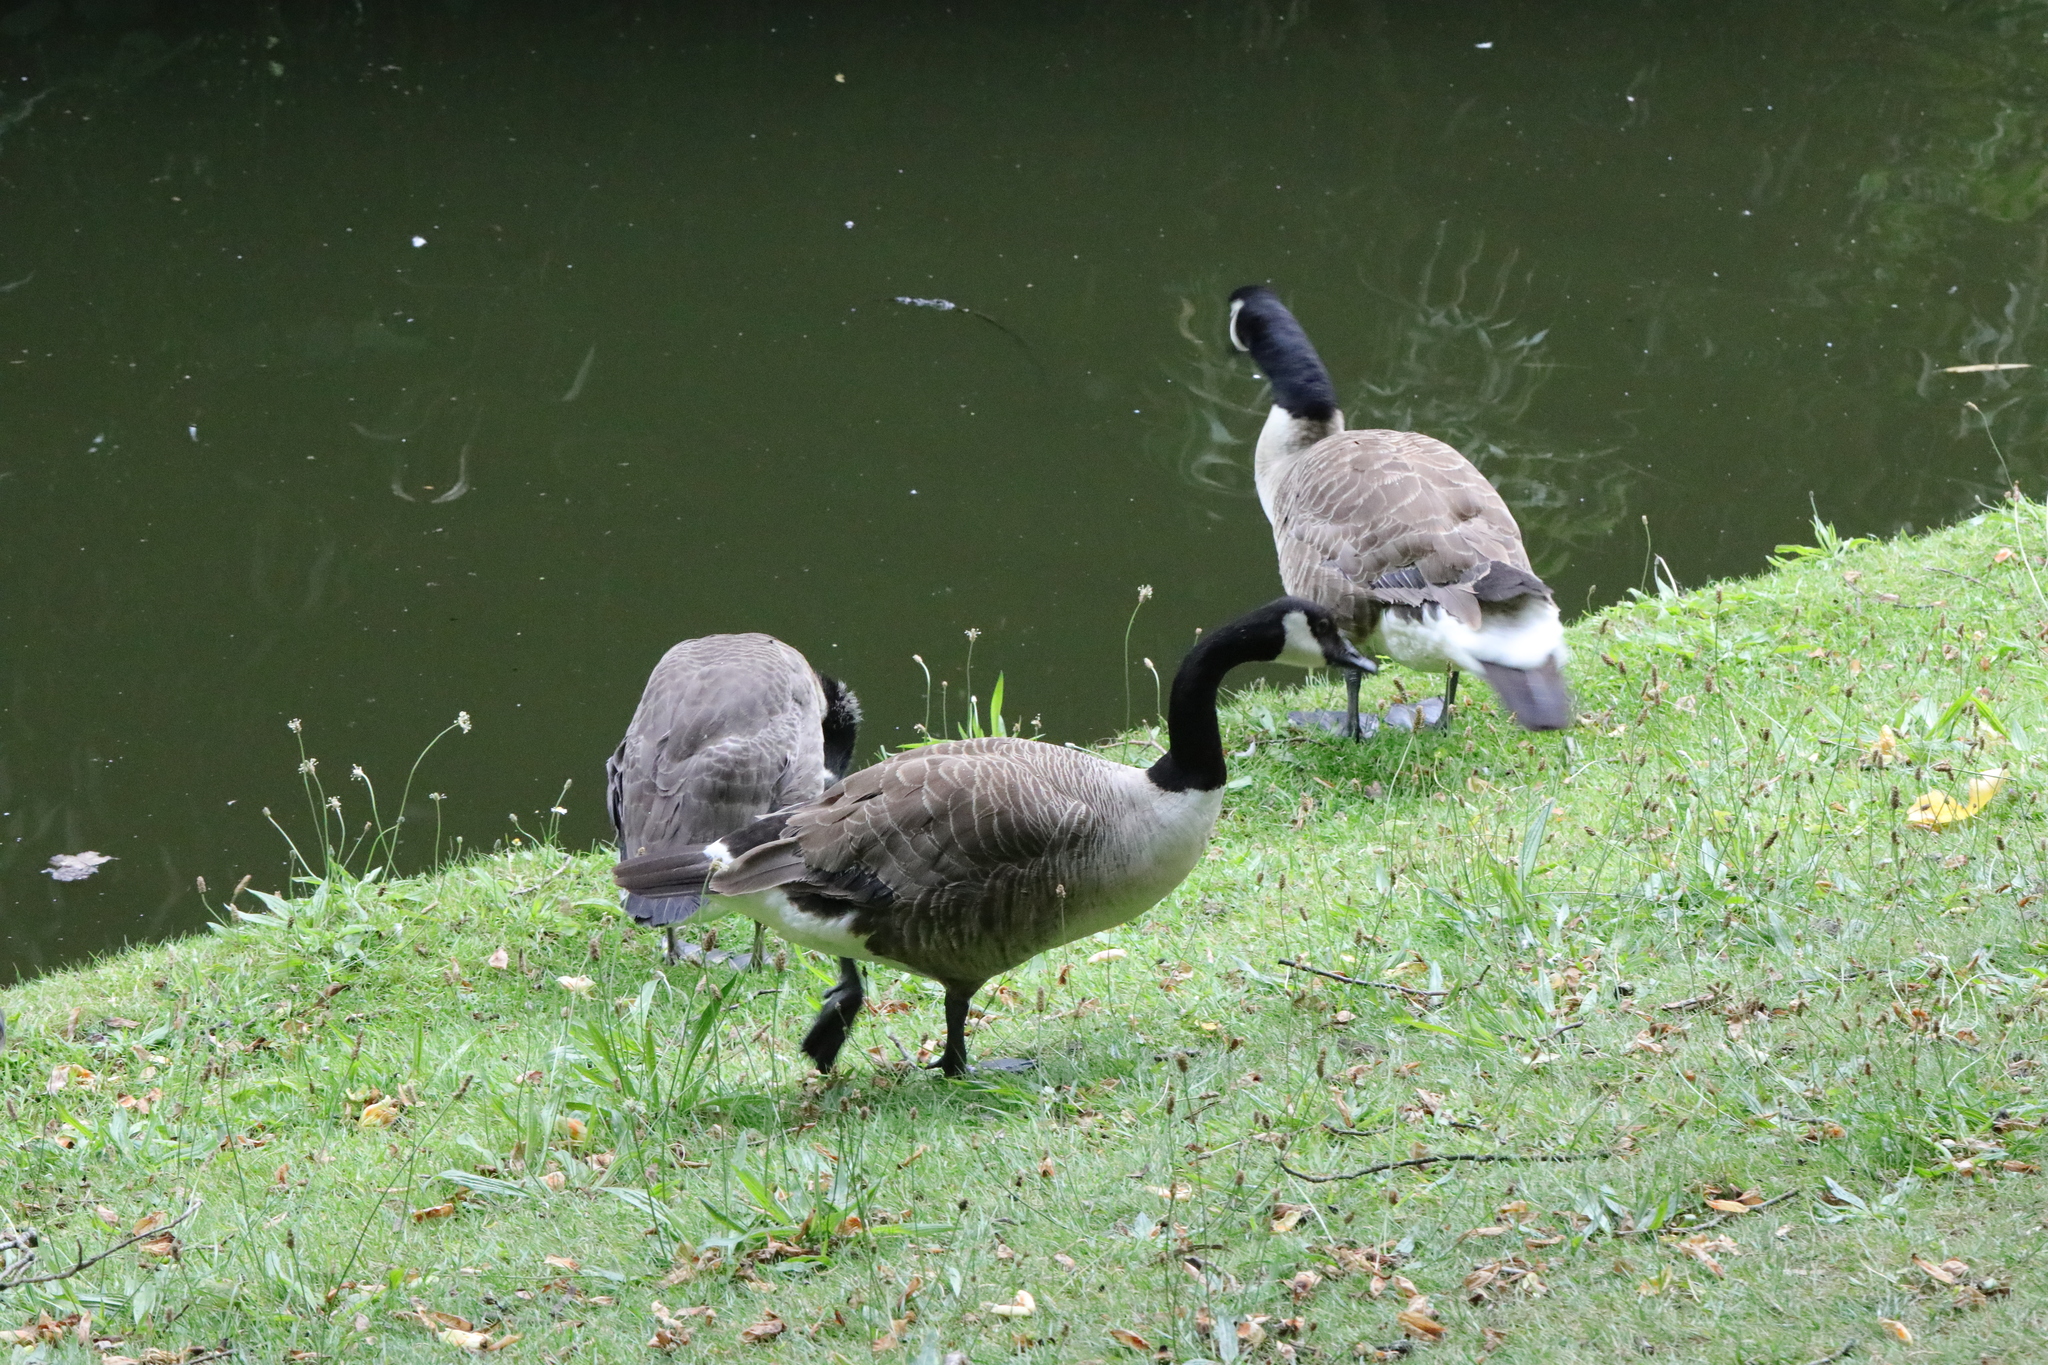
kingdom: Animalia
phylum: Chordata
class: Aves
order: Anseriformes
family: Anatidae
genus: Branta
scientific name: Branta canadensis
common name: Canada goose
